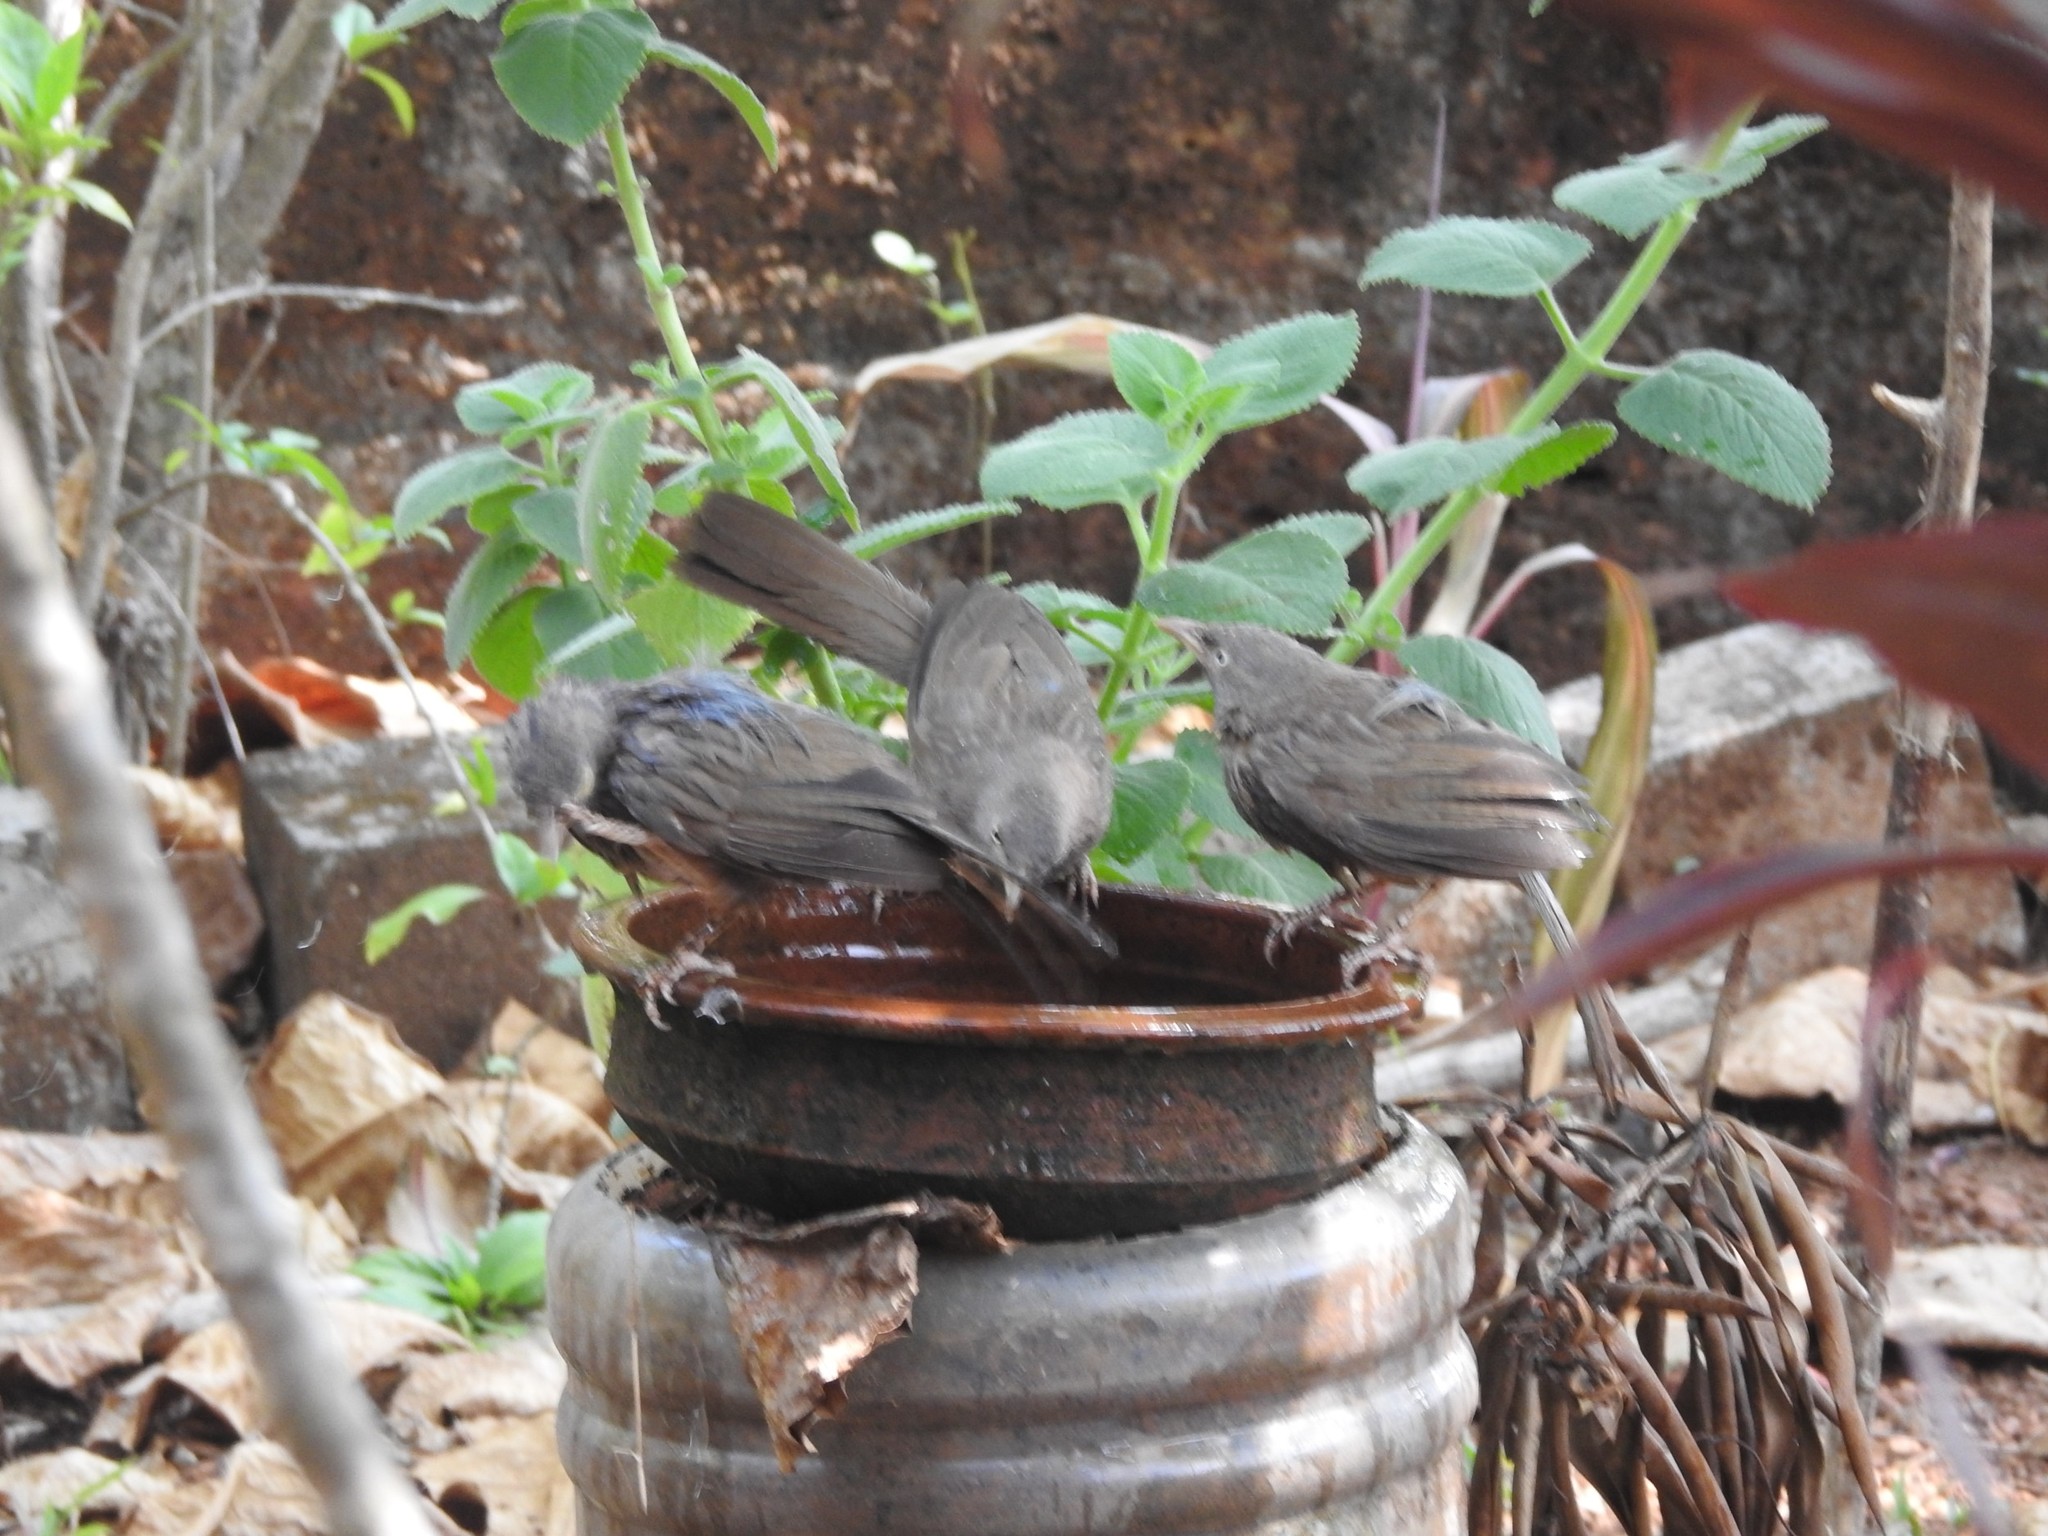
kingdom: Animalia
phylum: Chordata
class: Aves
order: Passeriformes
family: Leiothrichidae
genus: Turdoides
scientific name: Turdoides striata
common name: Jungle babbler
